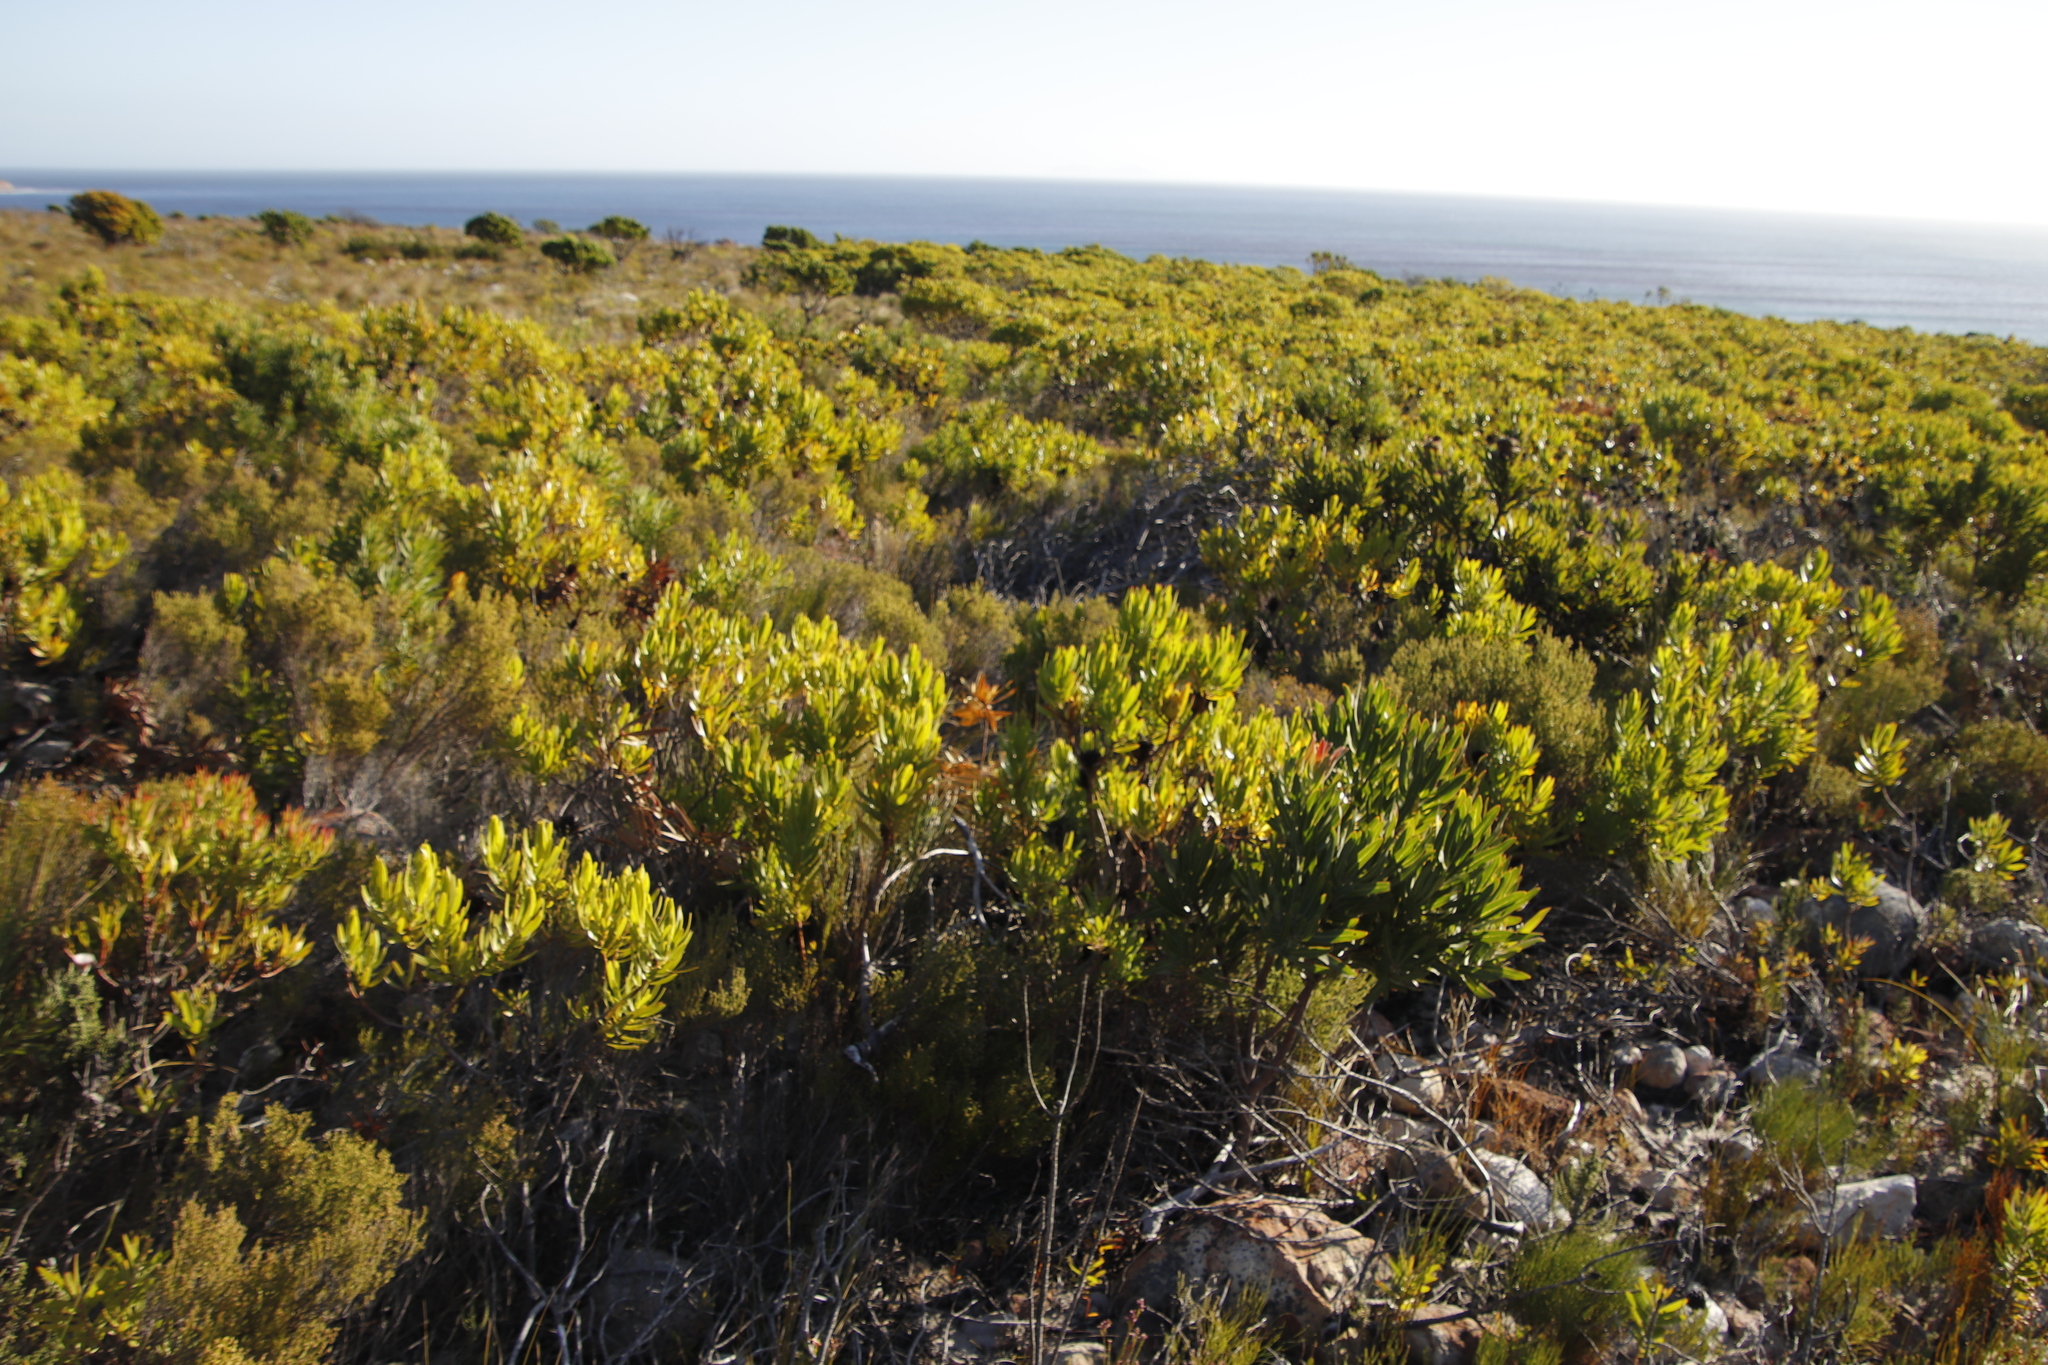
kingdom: Plantae
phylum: Tracheophyta
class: Magnoliopsida
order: Proteales
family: Proteaceae
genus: Leucadendron
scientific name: Leucadendron laureolum
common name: Golden sunshinebush
